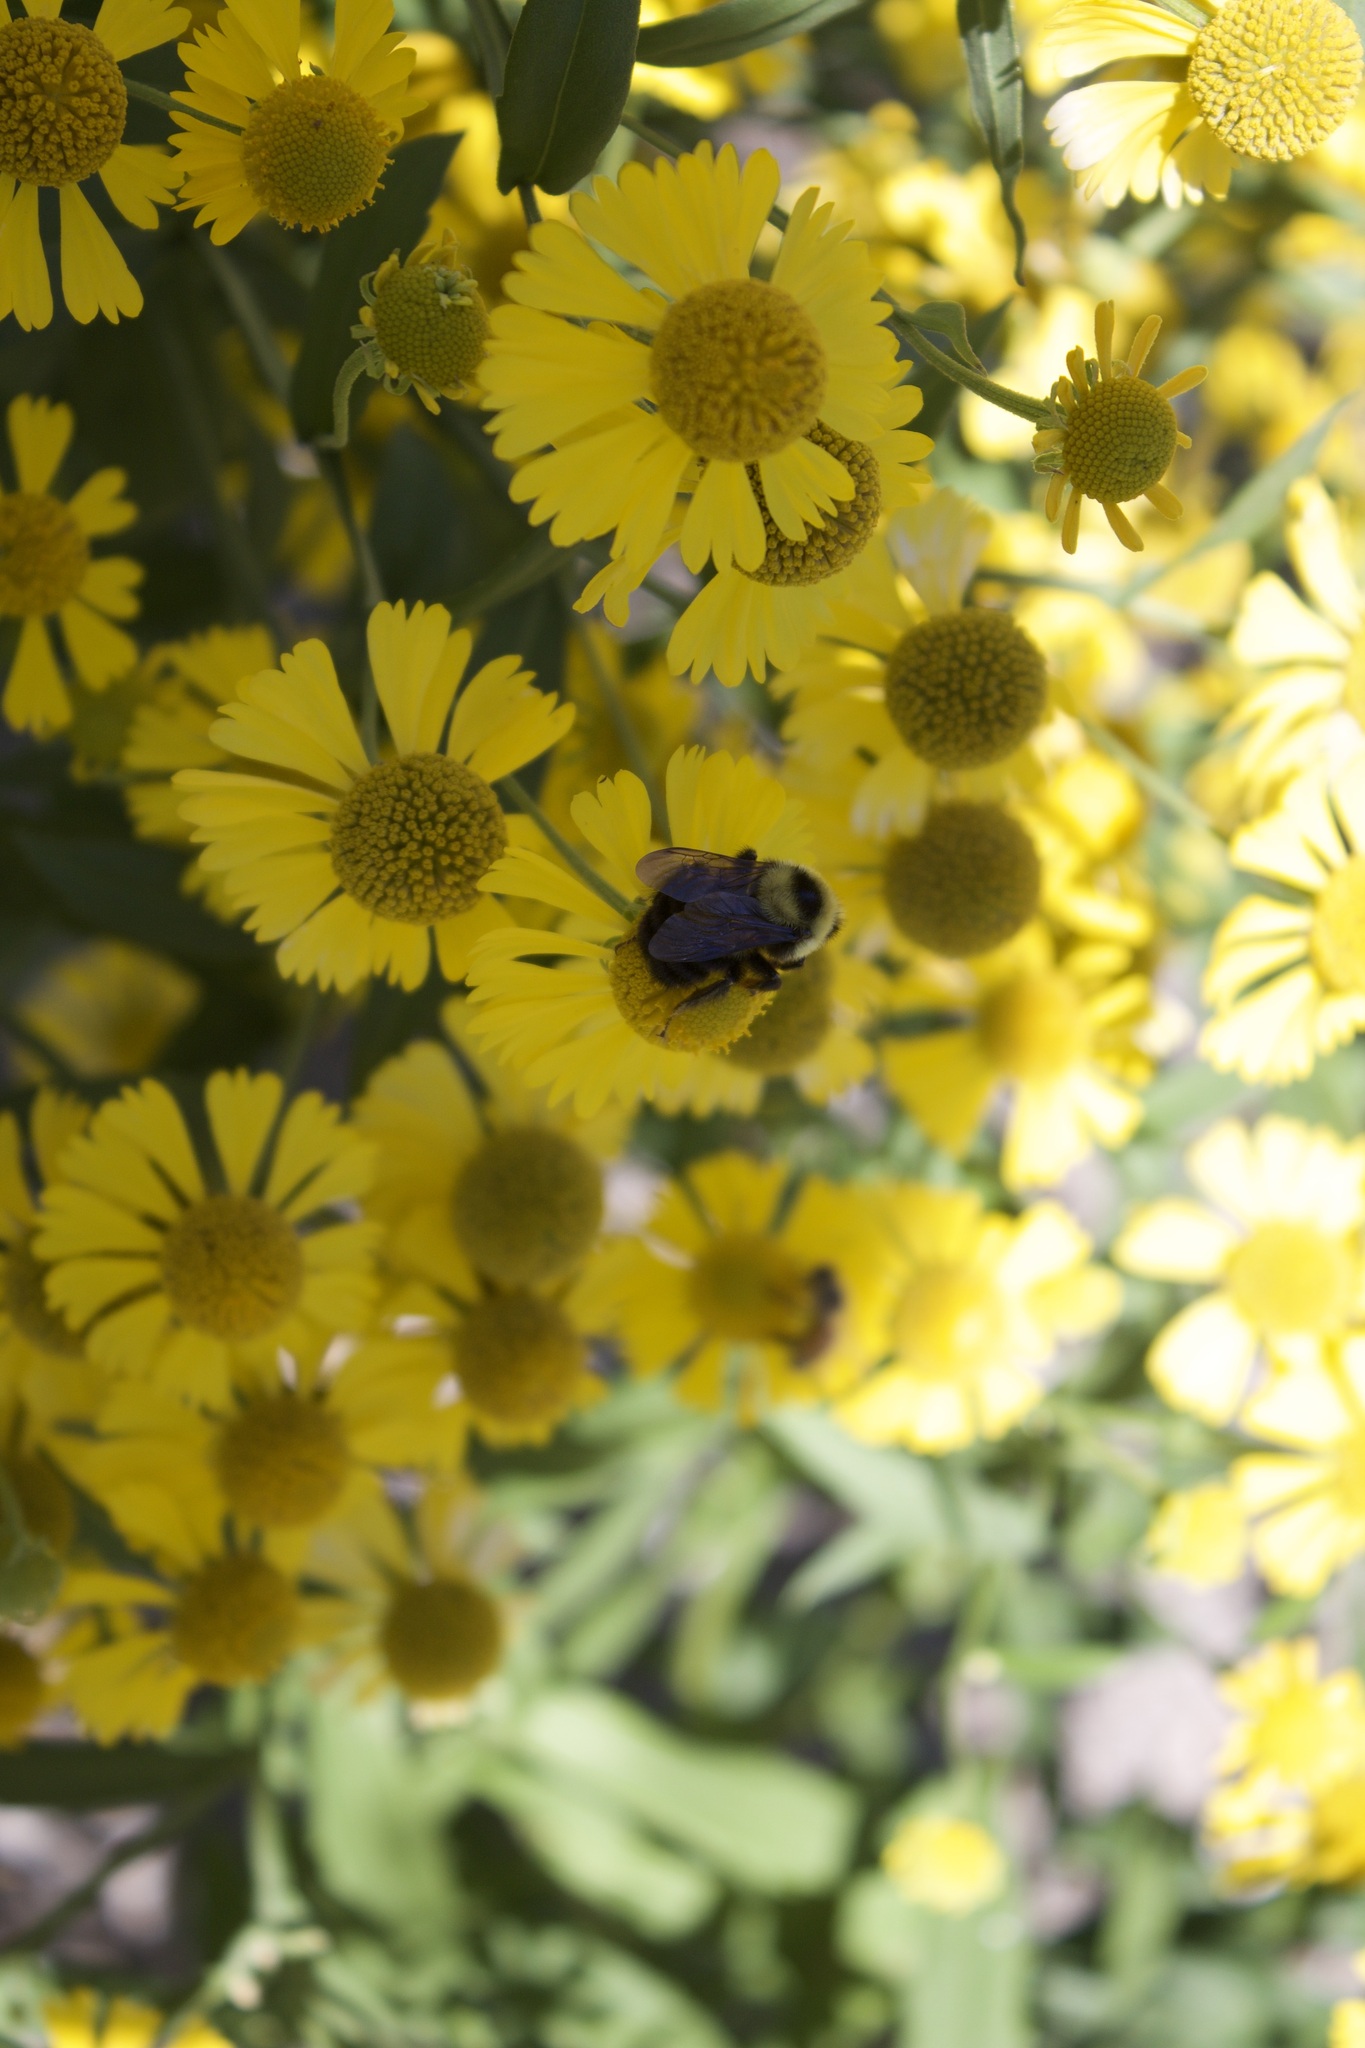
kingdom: Animalia
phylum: Arthropoda
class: Insecta
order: Hymenoptera
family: Apidae
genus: Bombus
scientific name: Bombus rufocinctus
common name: Red-belted bumble bee
